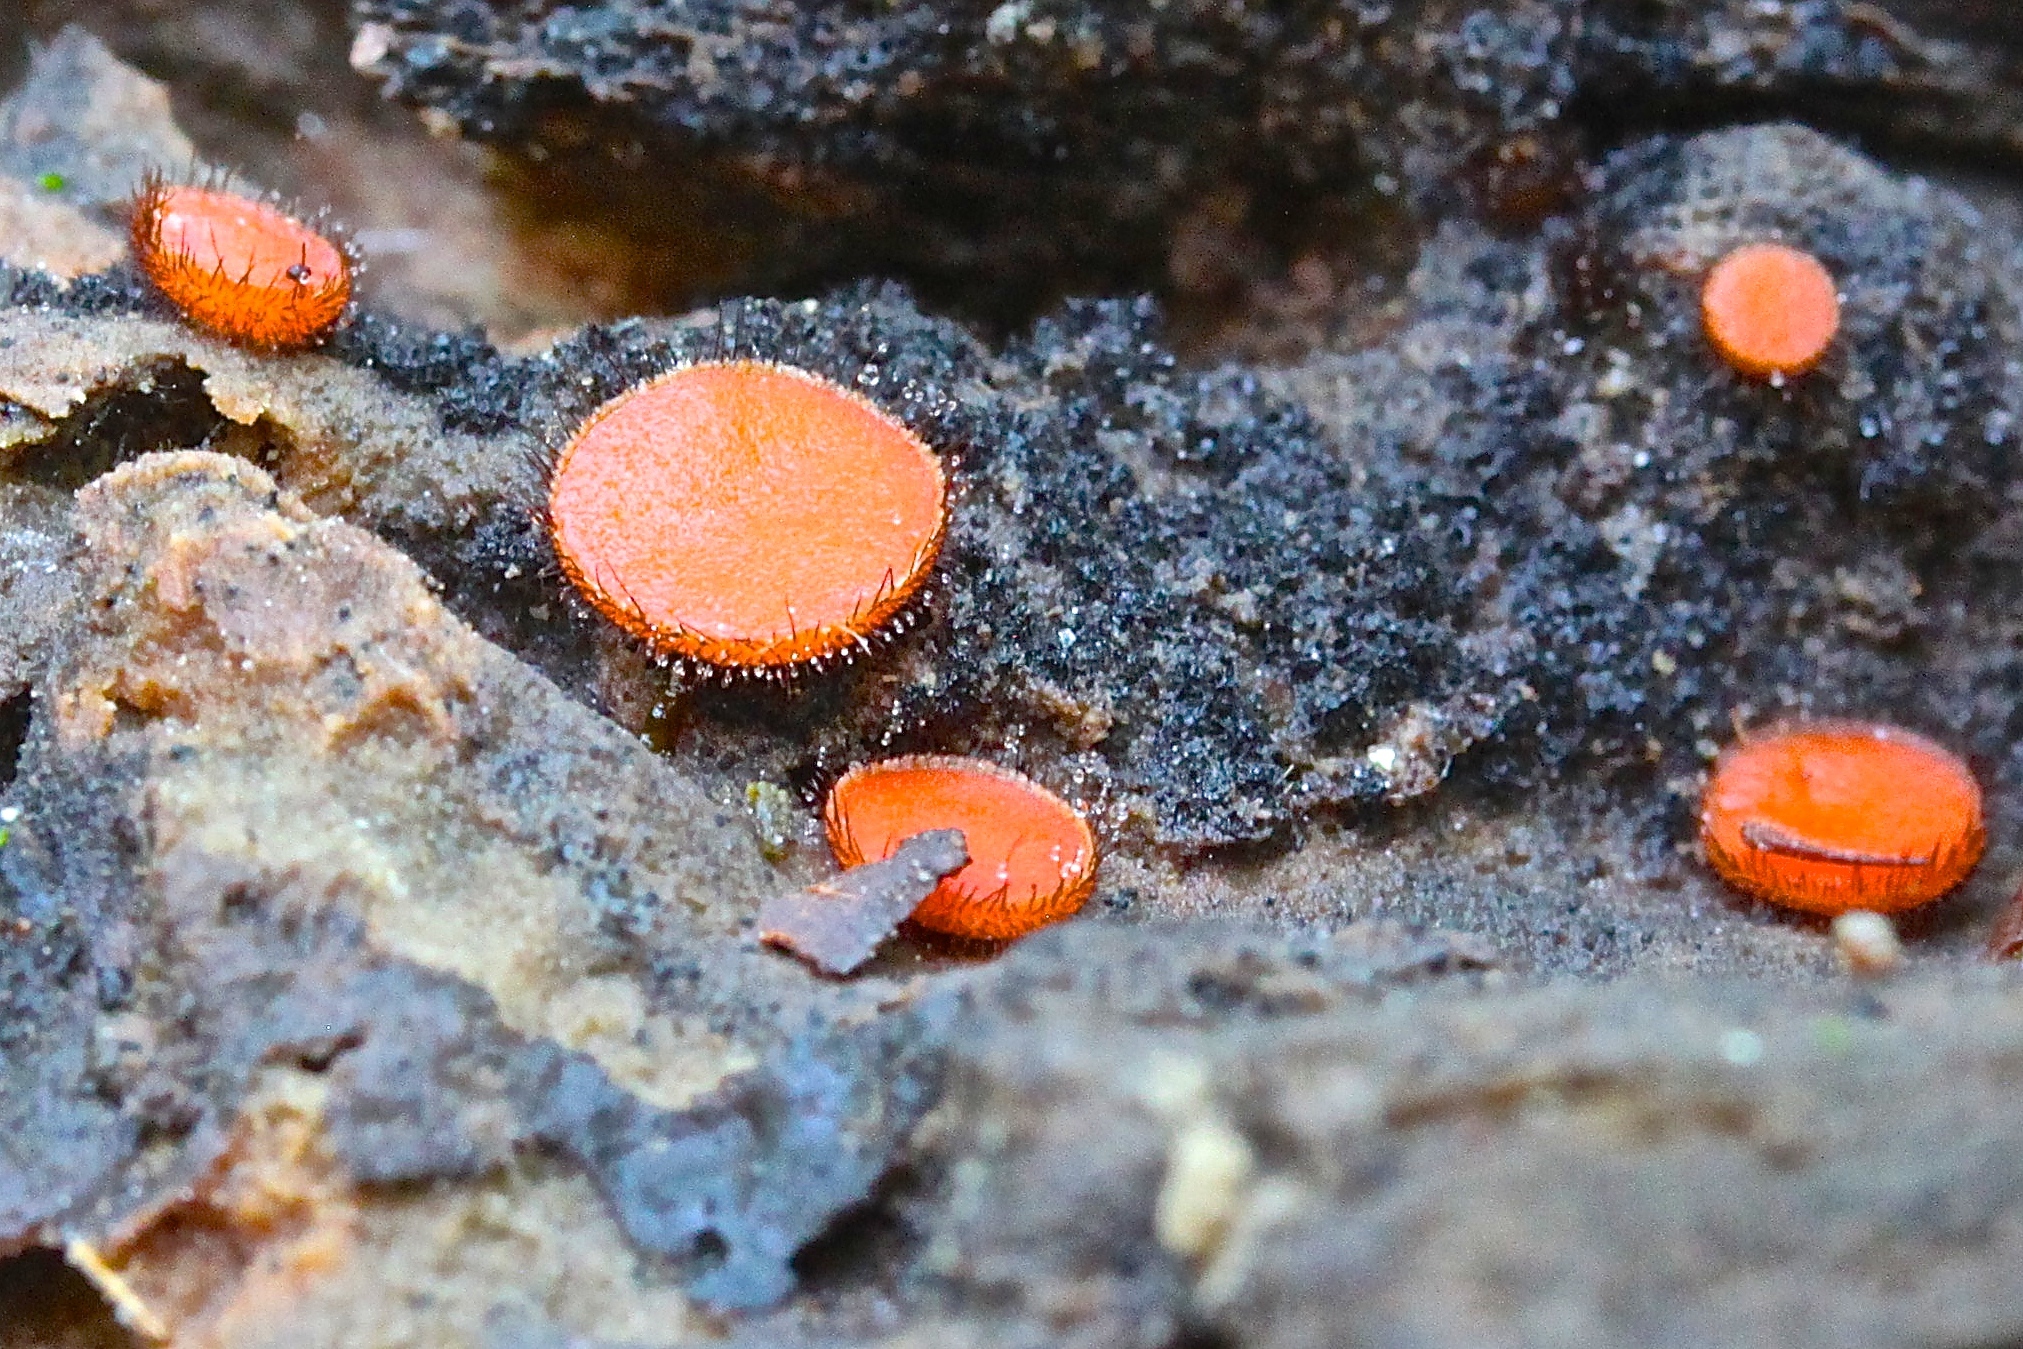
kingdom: Fungi
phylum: Ascomycota
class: Pezizomycetes
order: Pezizales
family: Pyronemataceae
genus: Scutellinia
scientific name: Scutellinia scutellata
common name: Common eyelash
